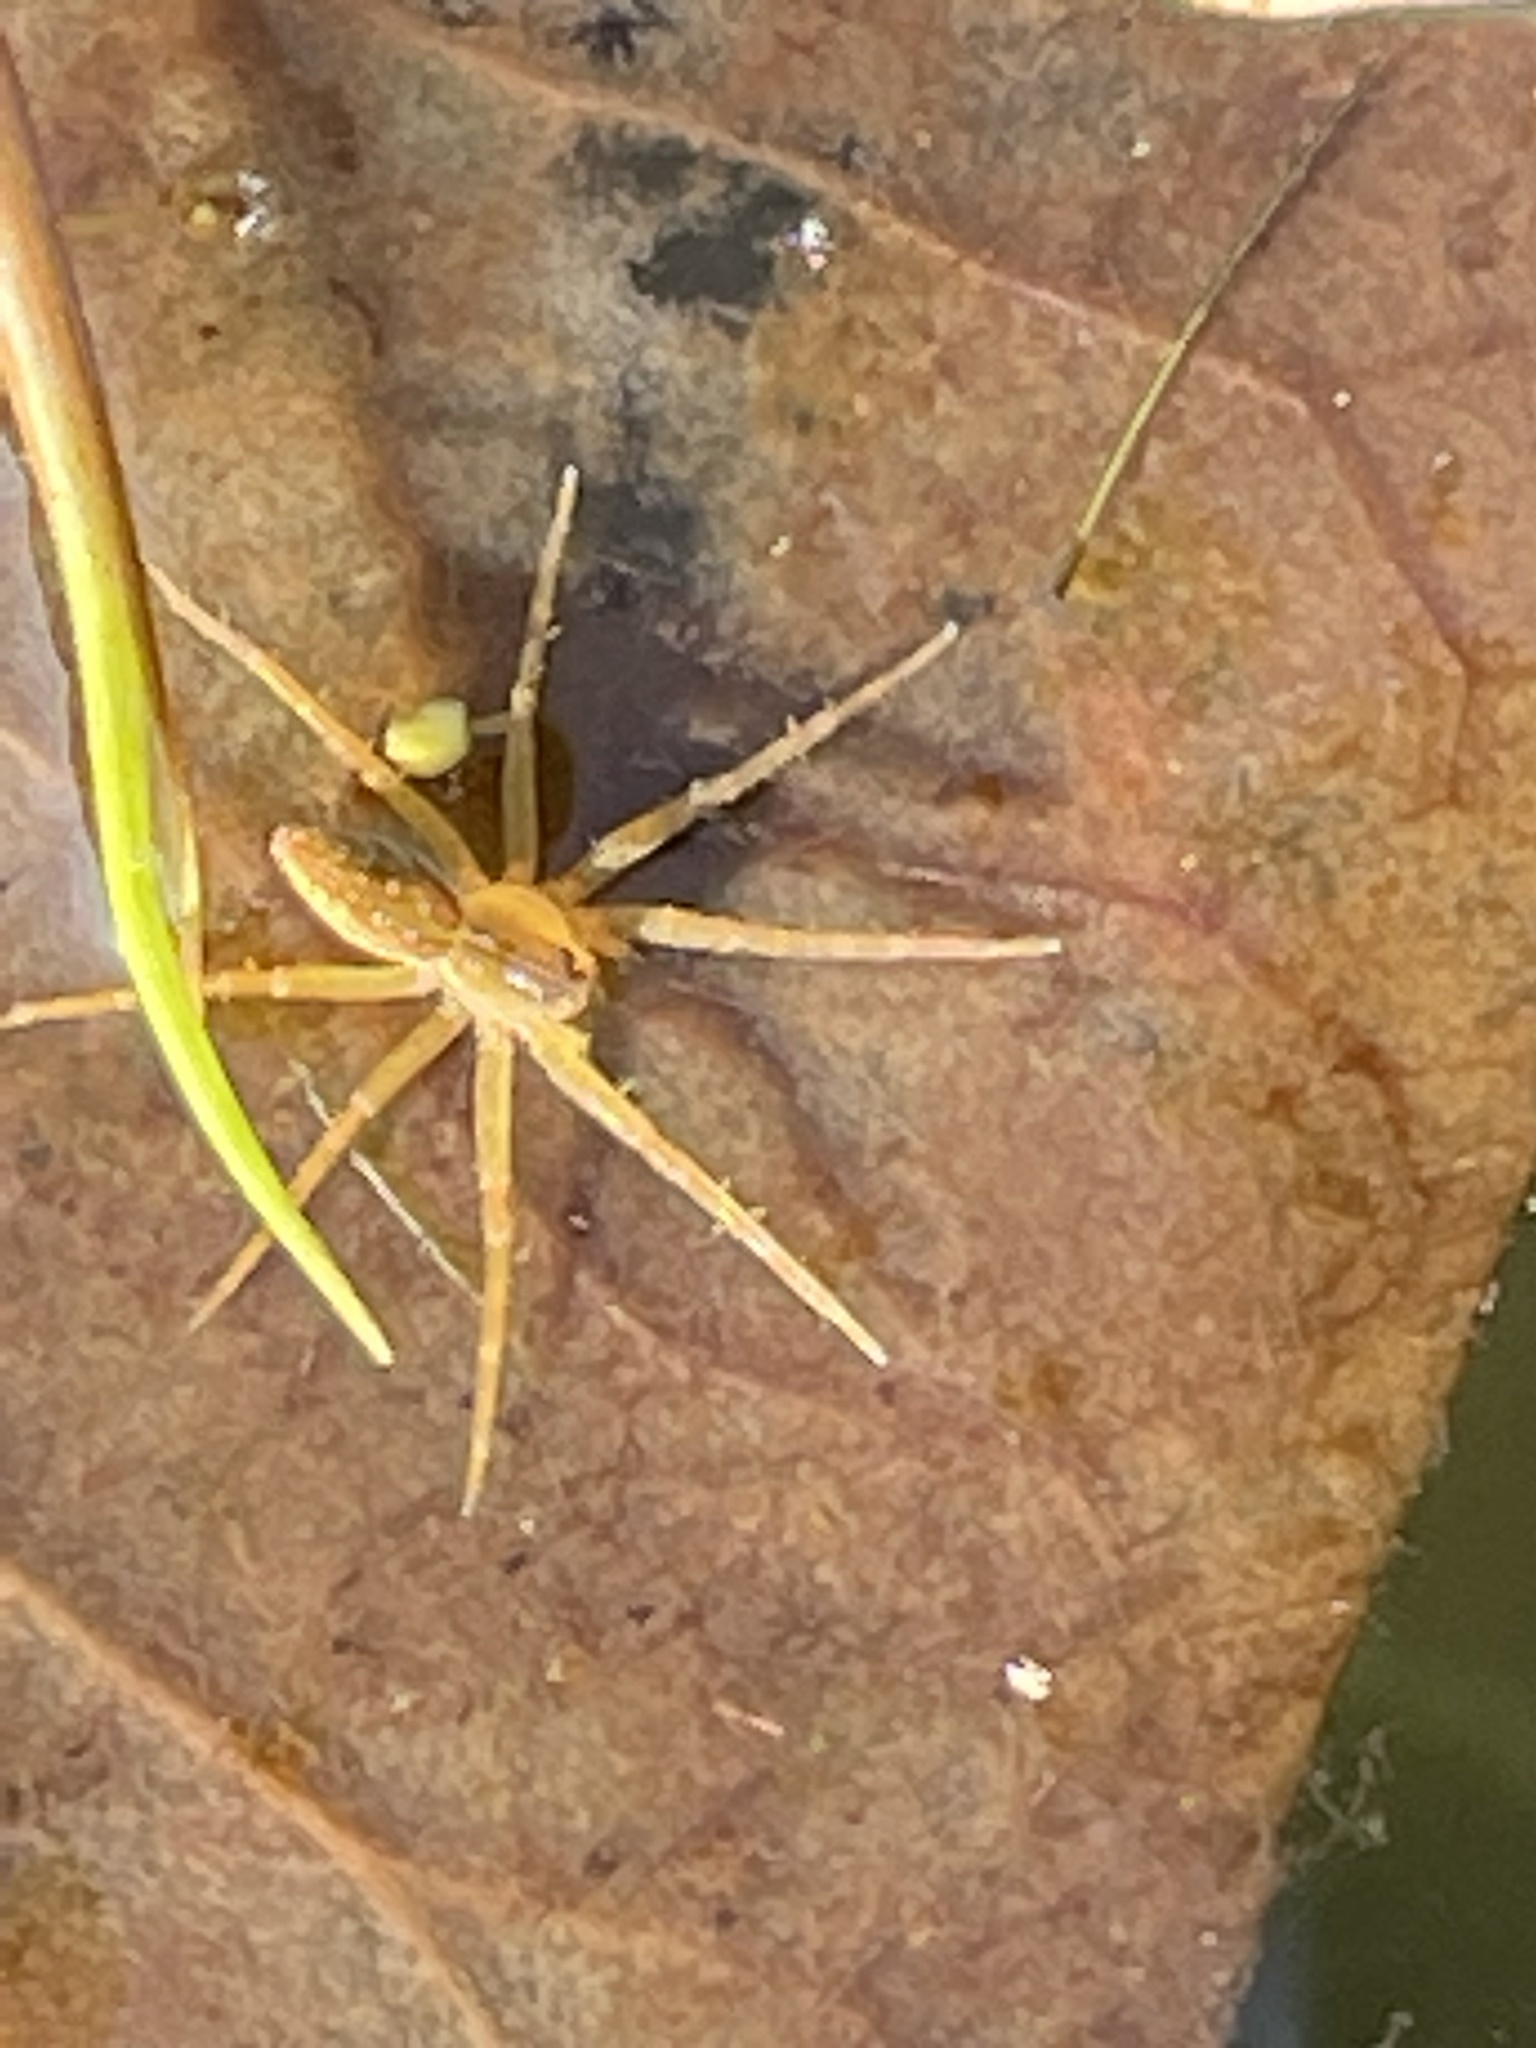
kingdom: Animalia
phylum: Arthropoda
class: Arachnida
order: Araneae
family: Pisauridae
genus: Dolomedes
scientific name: Dolomedes triton
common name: Six-spotted fishing spider
